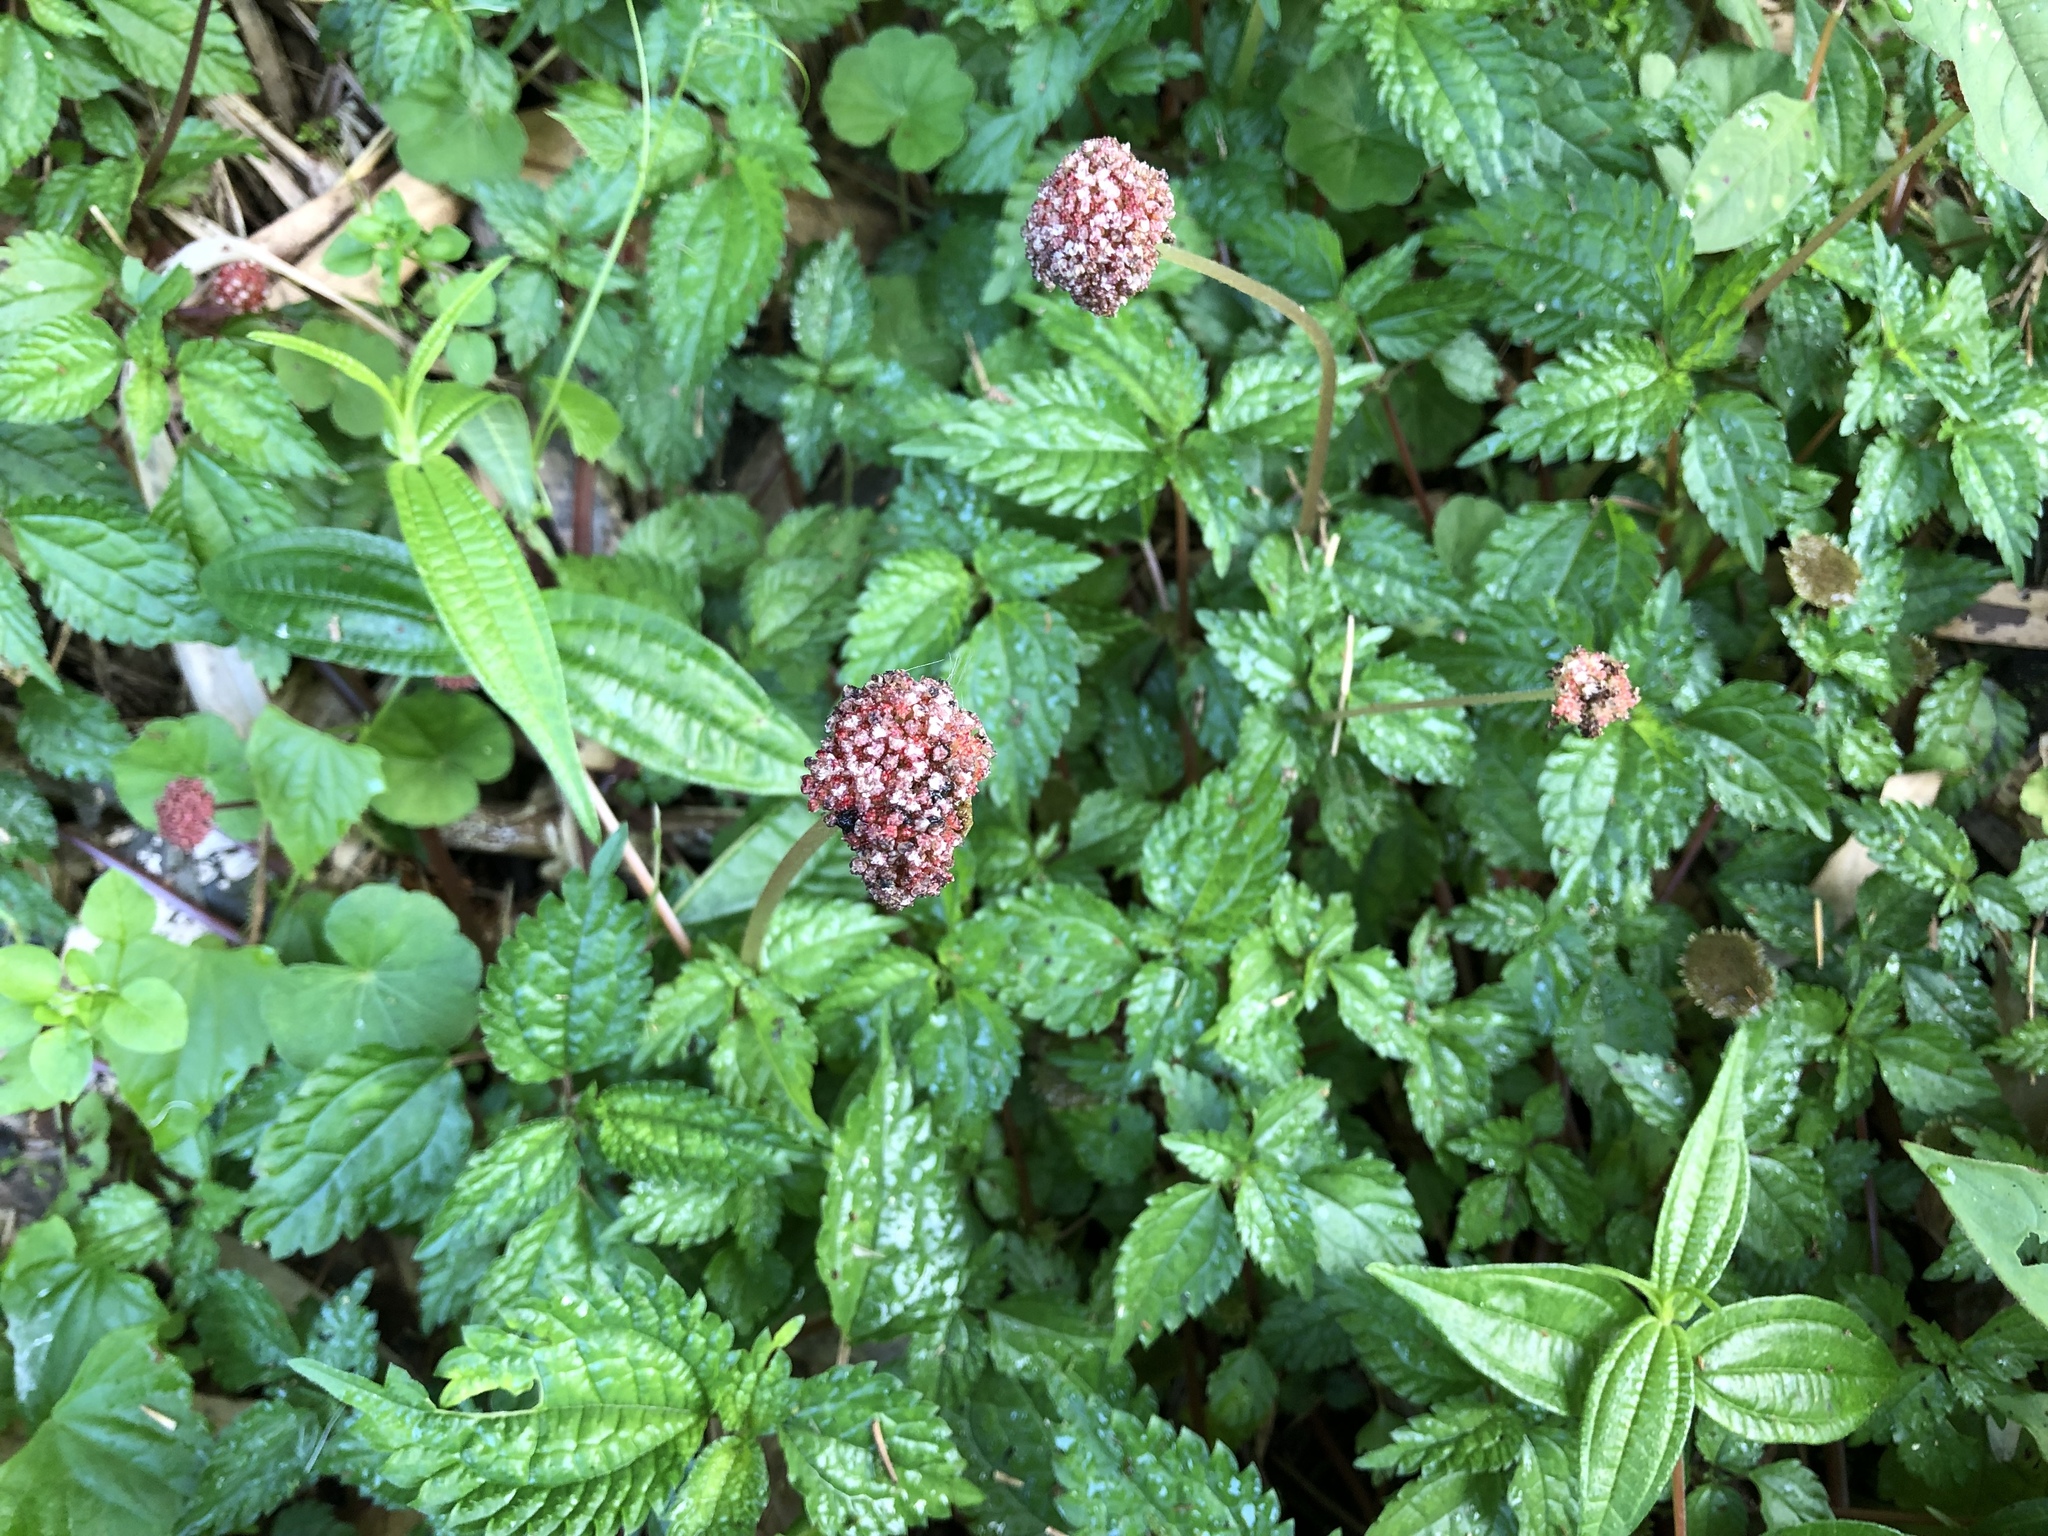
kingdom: Plantae
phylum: Tracheophyta
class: Magnoliopsida
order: Rosales
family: Urticaceae
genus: Lecanthus
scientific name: Lecanthus peduncularis
